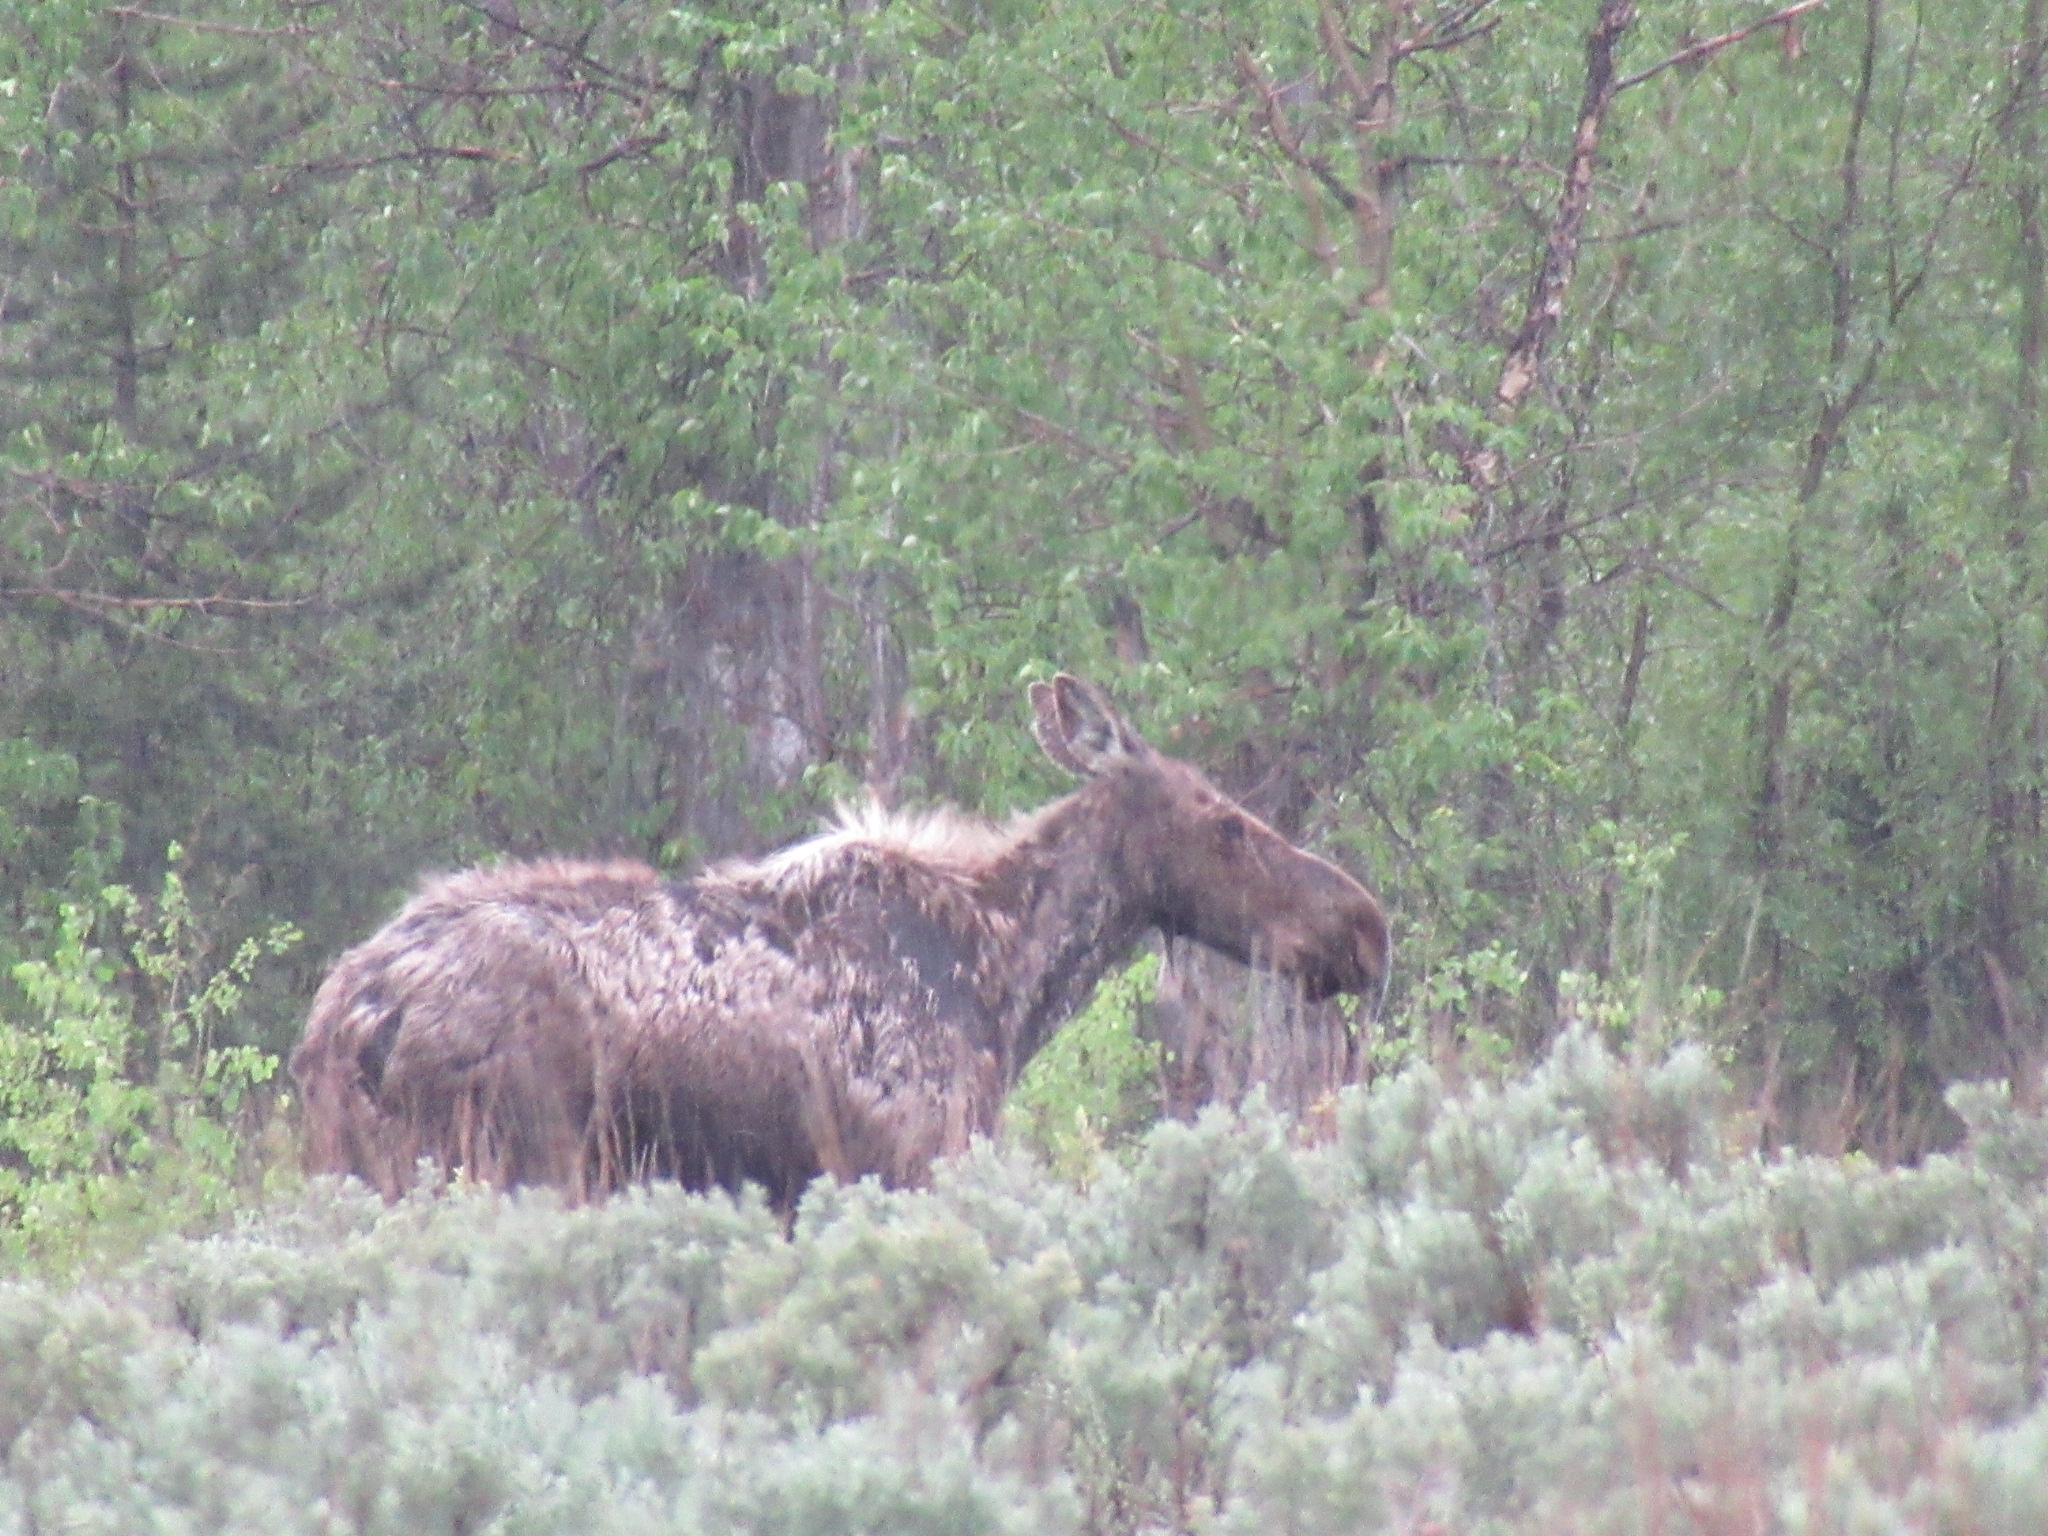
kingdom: Animalia
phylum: Chordata
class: Mammalia
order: Artiodactyla
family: Cervidae
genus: Alces
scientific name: Alces alces
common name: Moose
